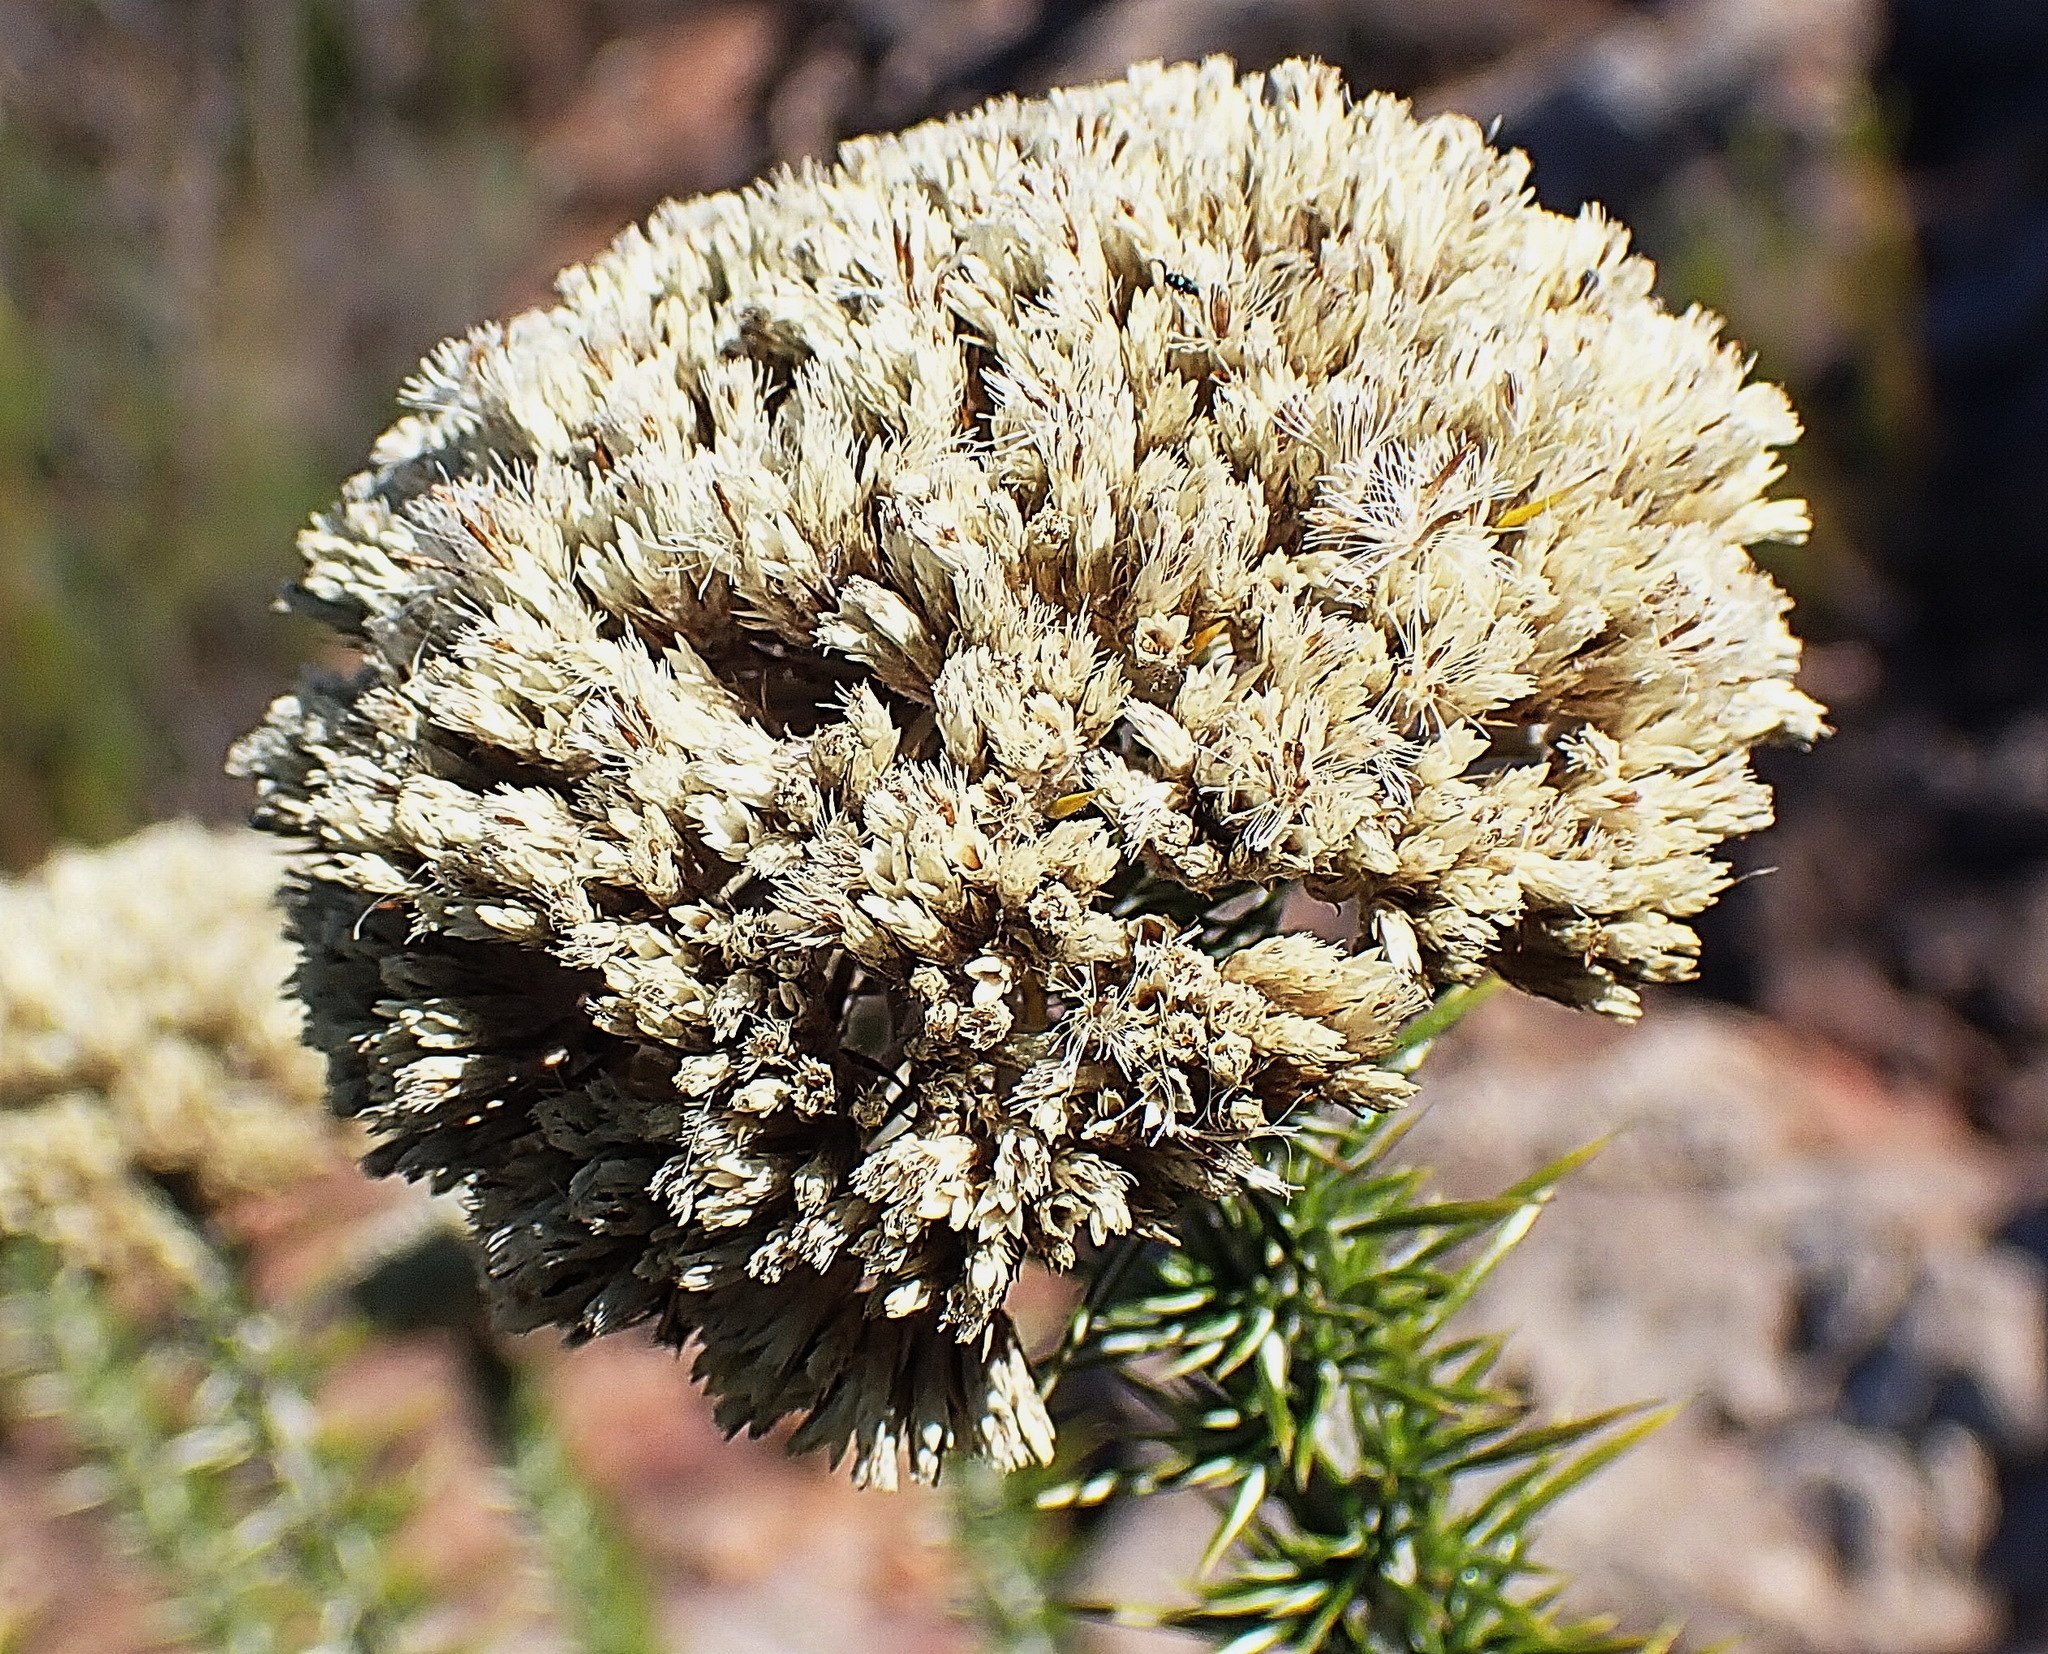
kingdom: Plantae
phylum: Tracheophyta
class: Magnoliopsida
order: Asterales
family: Asteraceae
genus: Metalasia
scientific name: Metalasia trivialis
